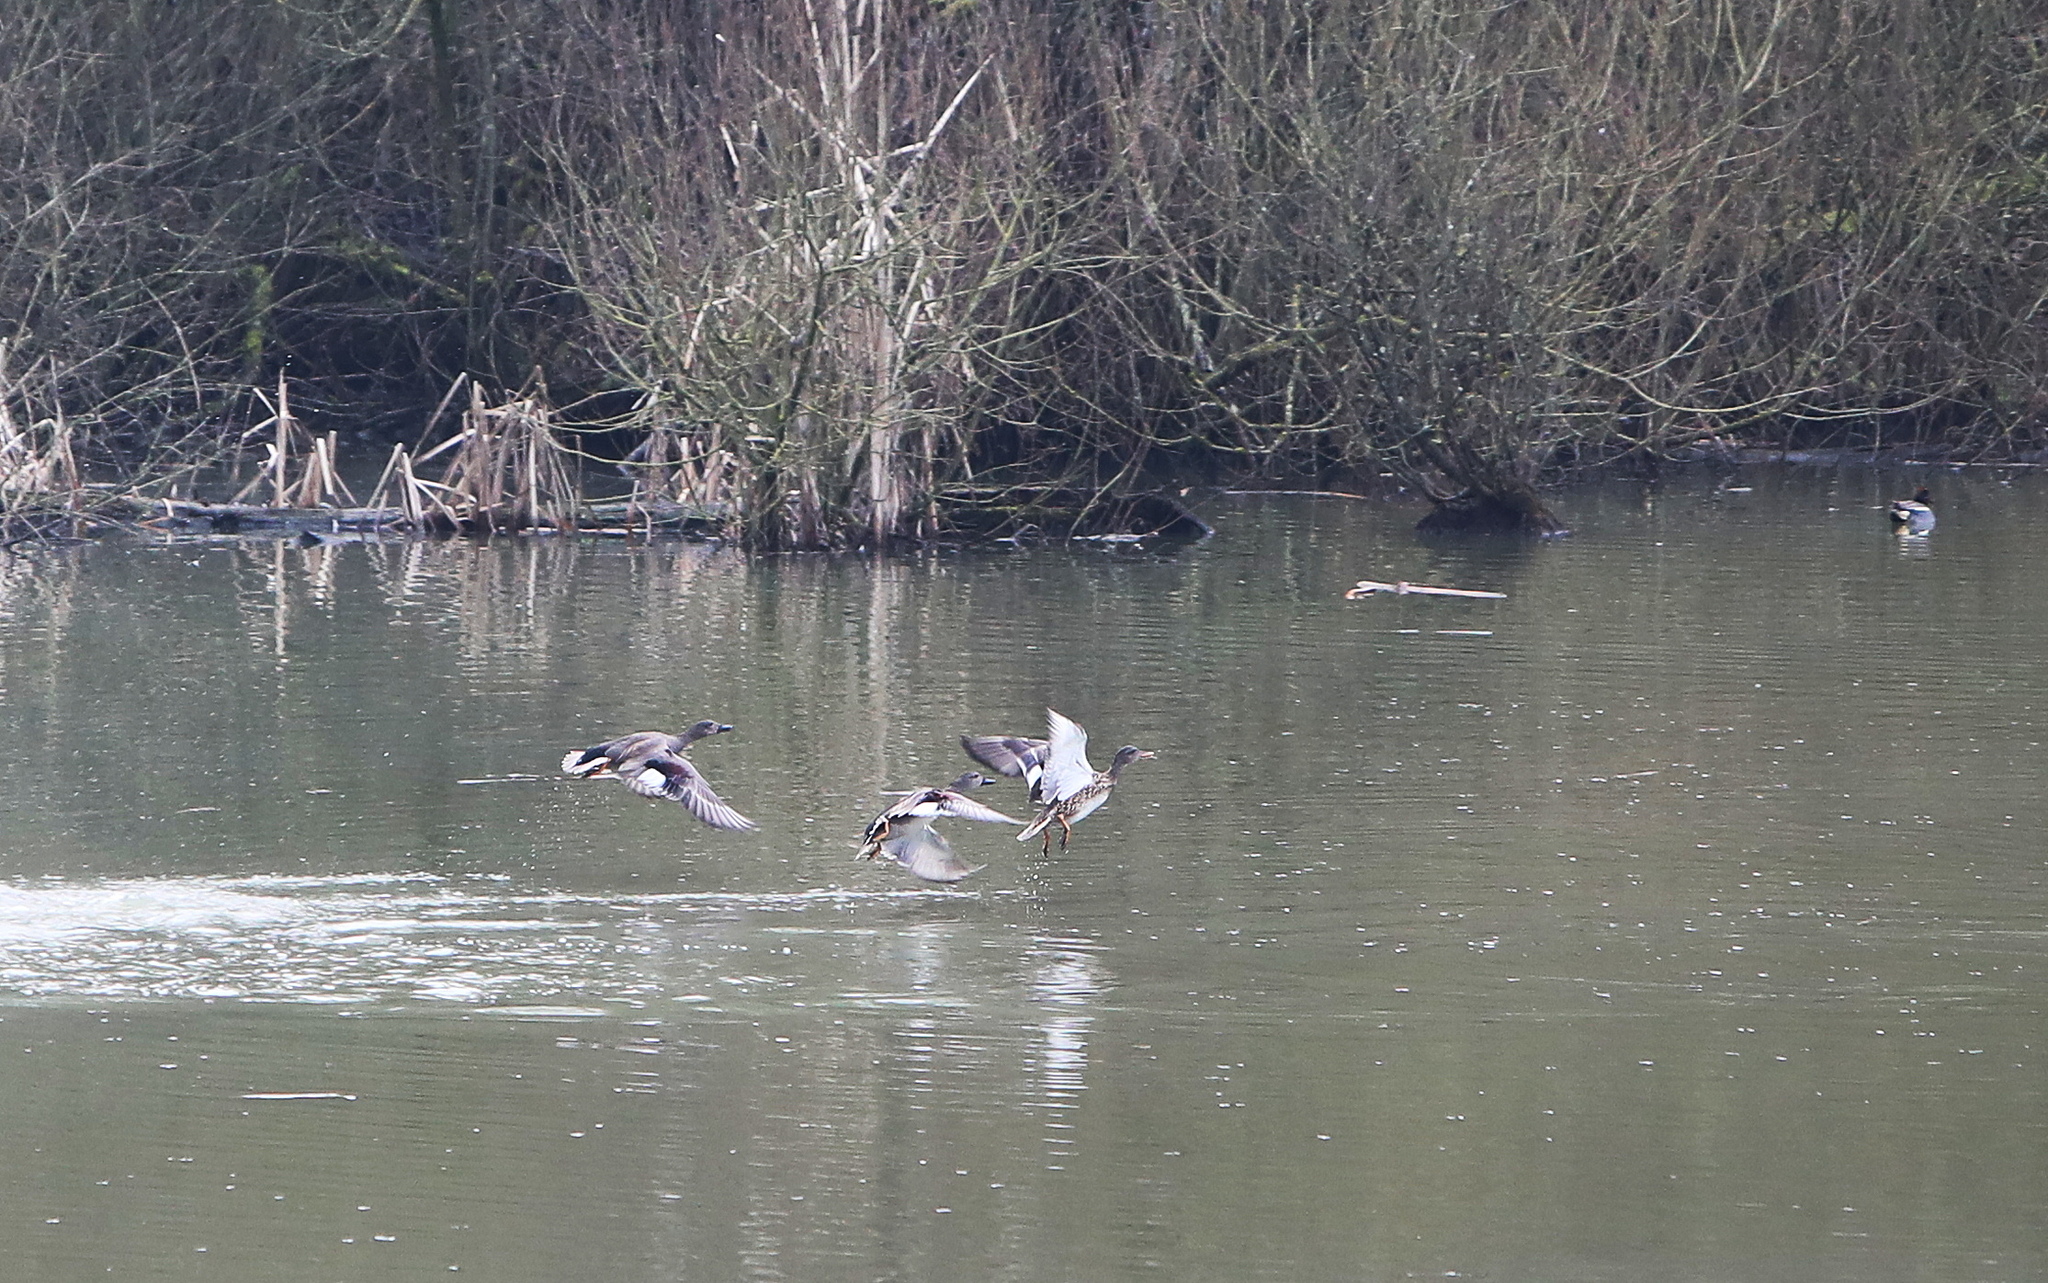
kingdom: Animalia
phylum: Chordata
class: Aves
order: Anseriformes
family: Anatidae
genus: Mareca
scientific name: Mareca strepera
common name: Gadwall
